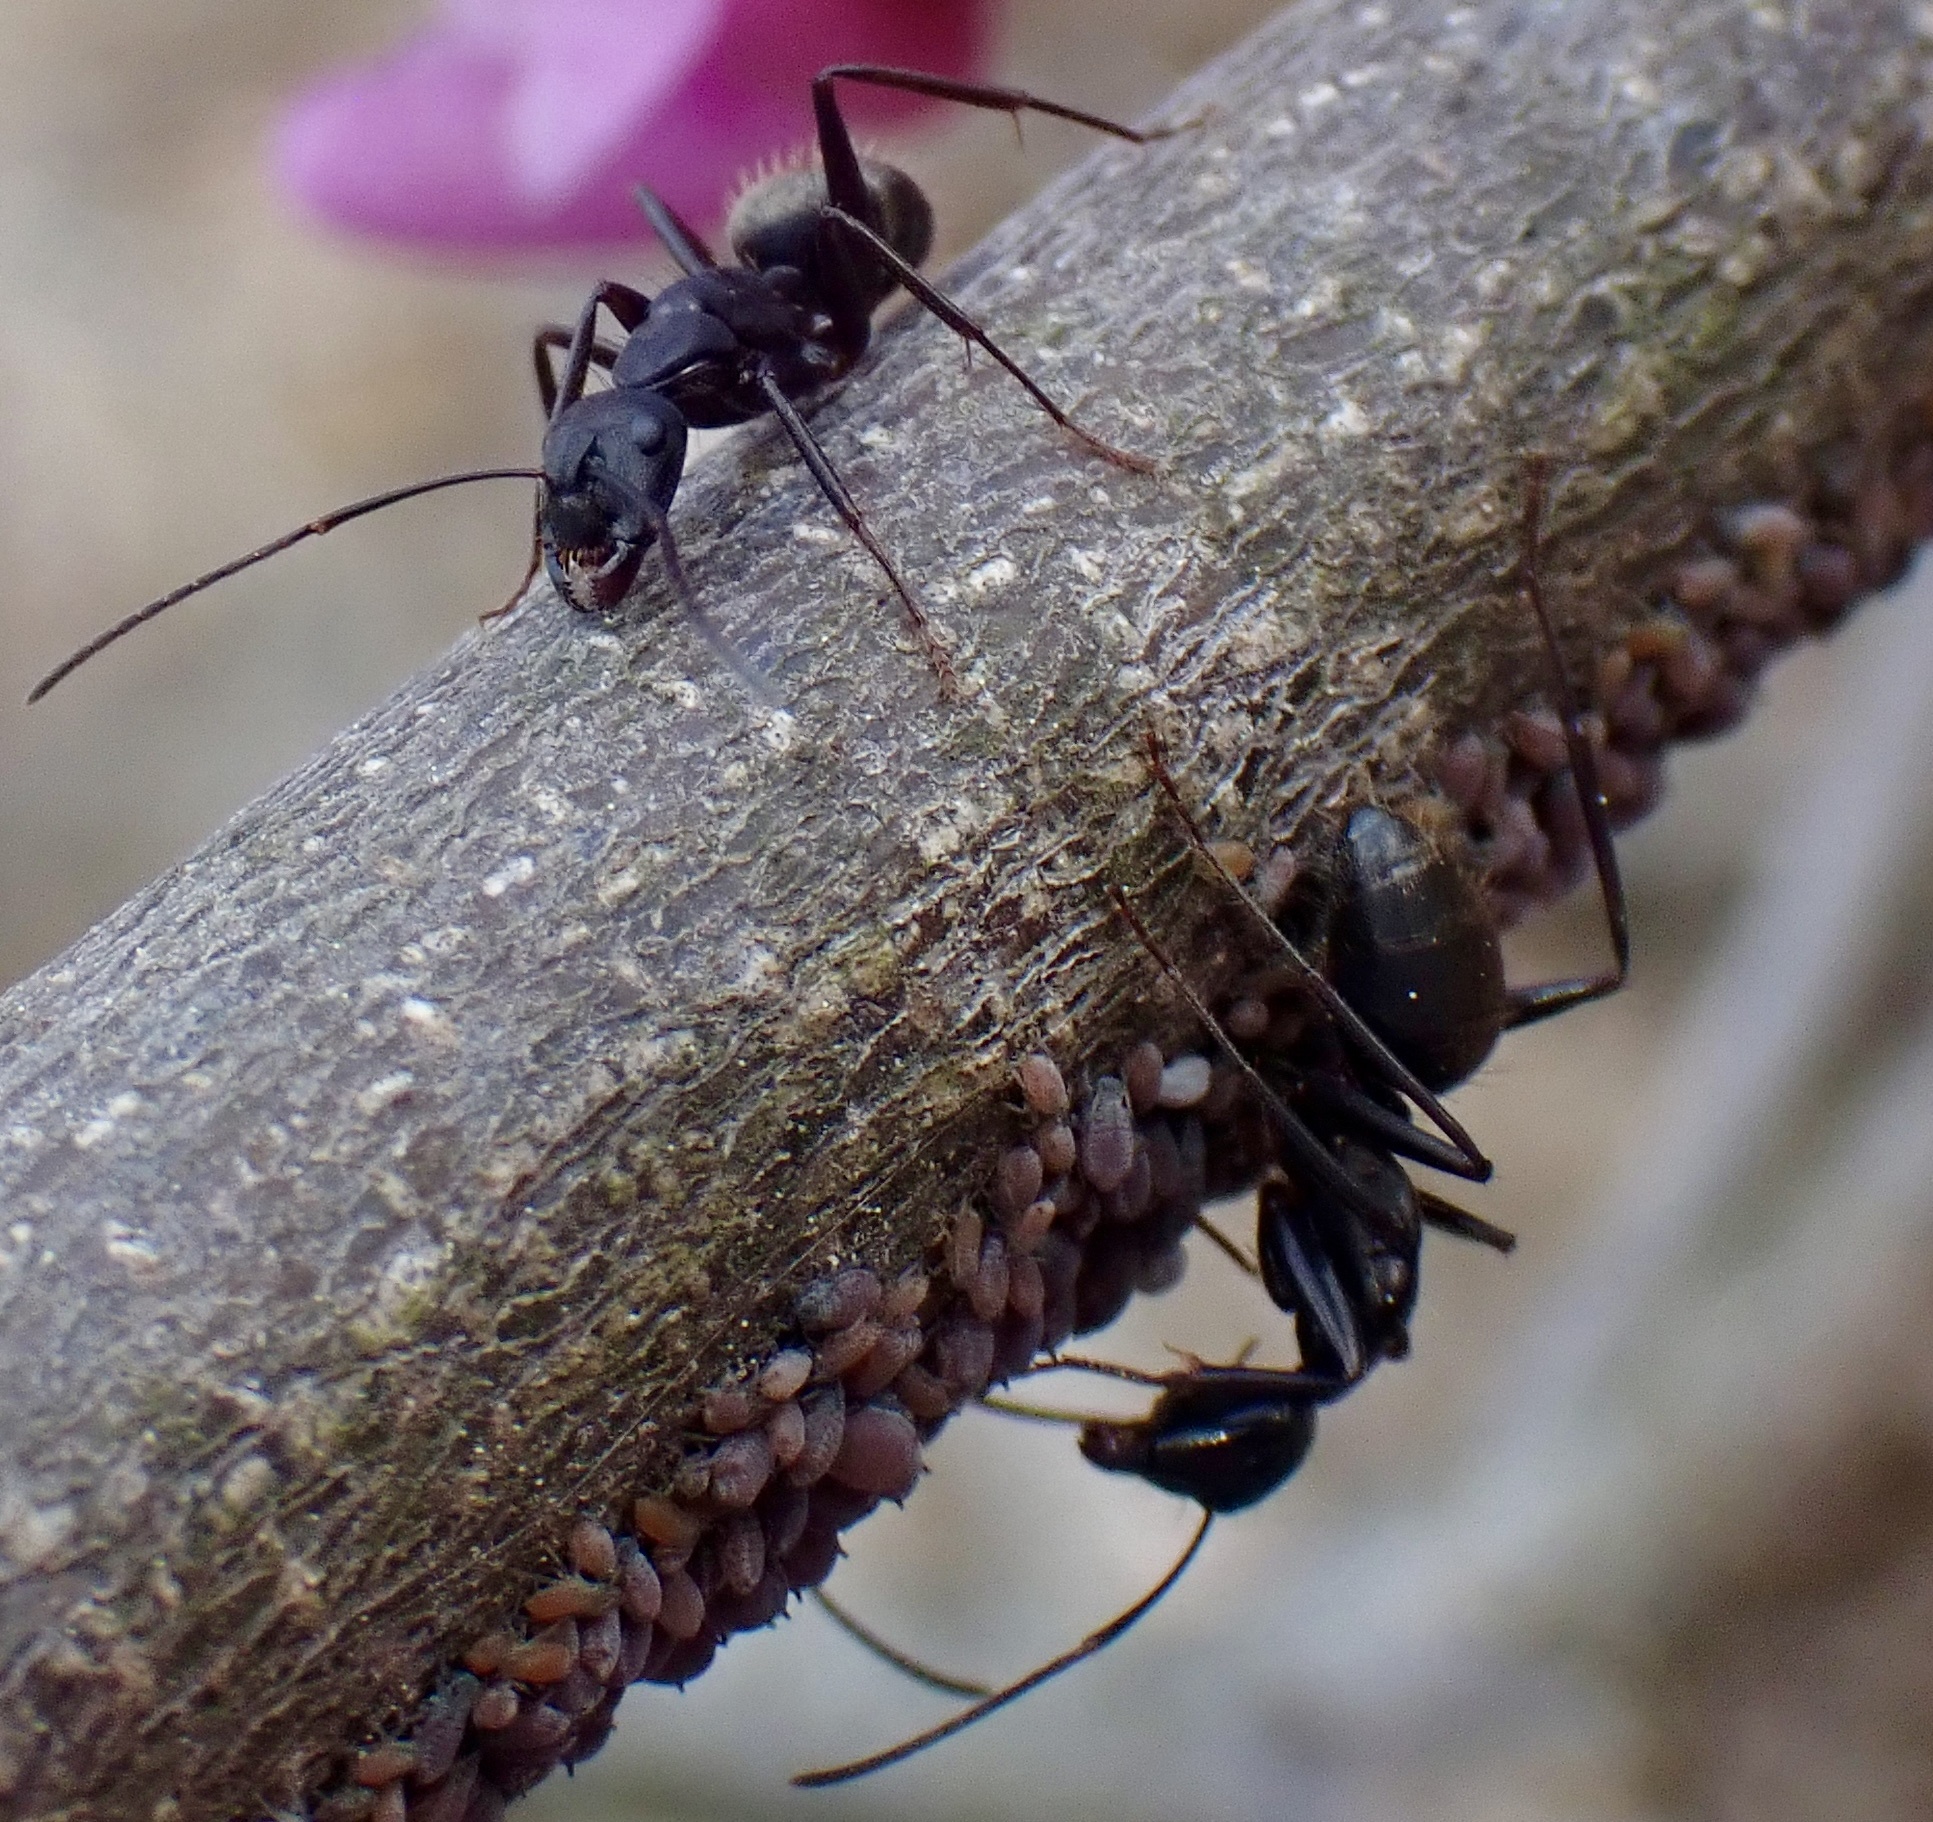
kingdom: Animalia
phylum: Arthropoda
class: Insecta
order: Hymenoptera
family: Formicidae
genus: Camponotus
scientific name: Camponotus pennsylvanicus
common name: Black carpenter ant
